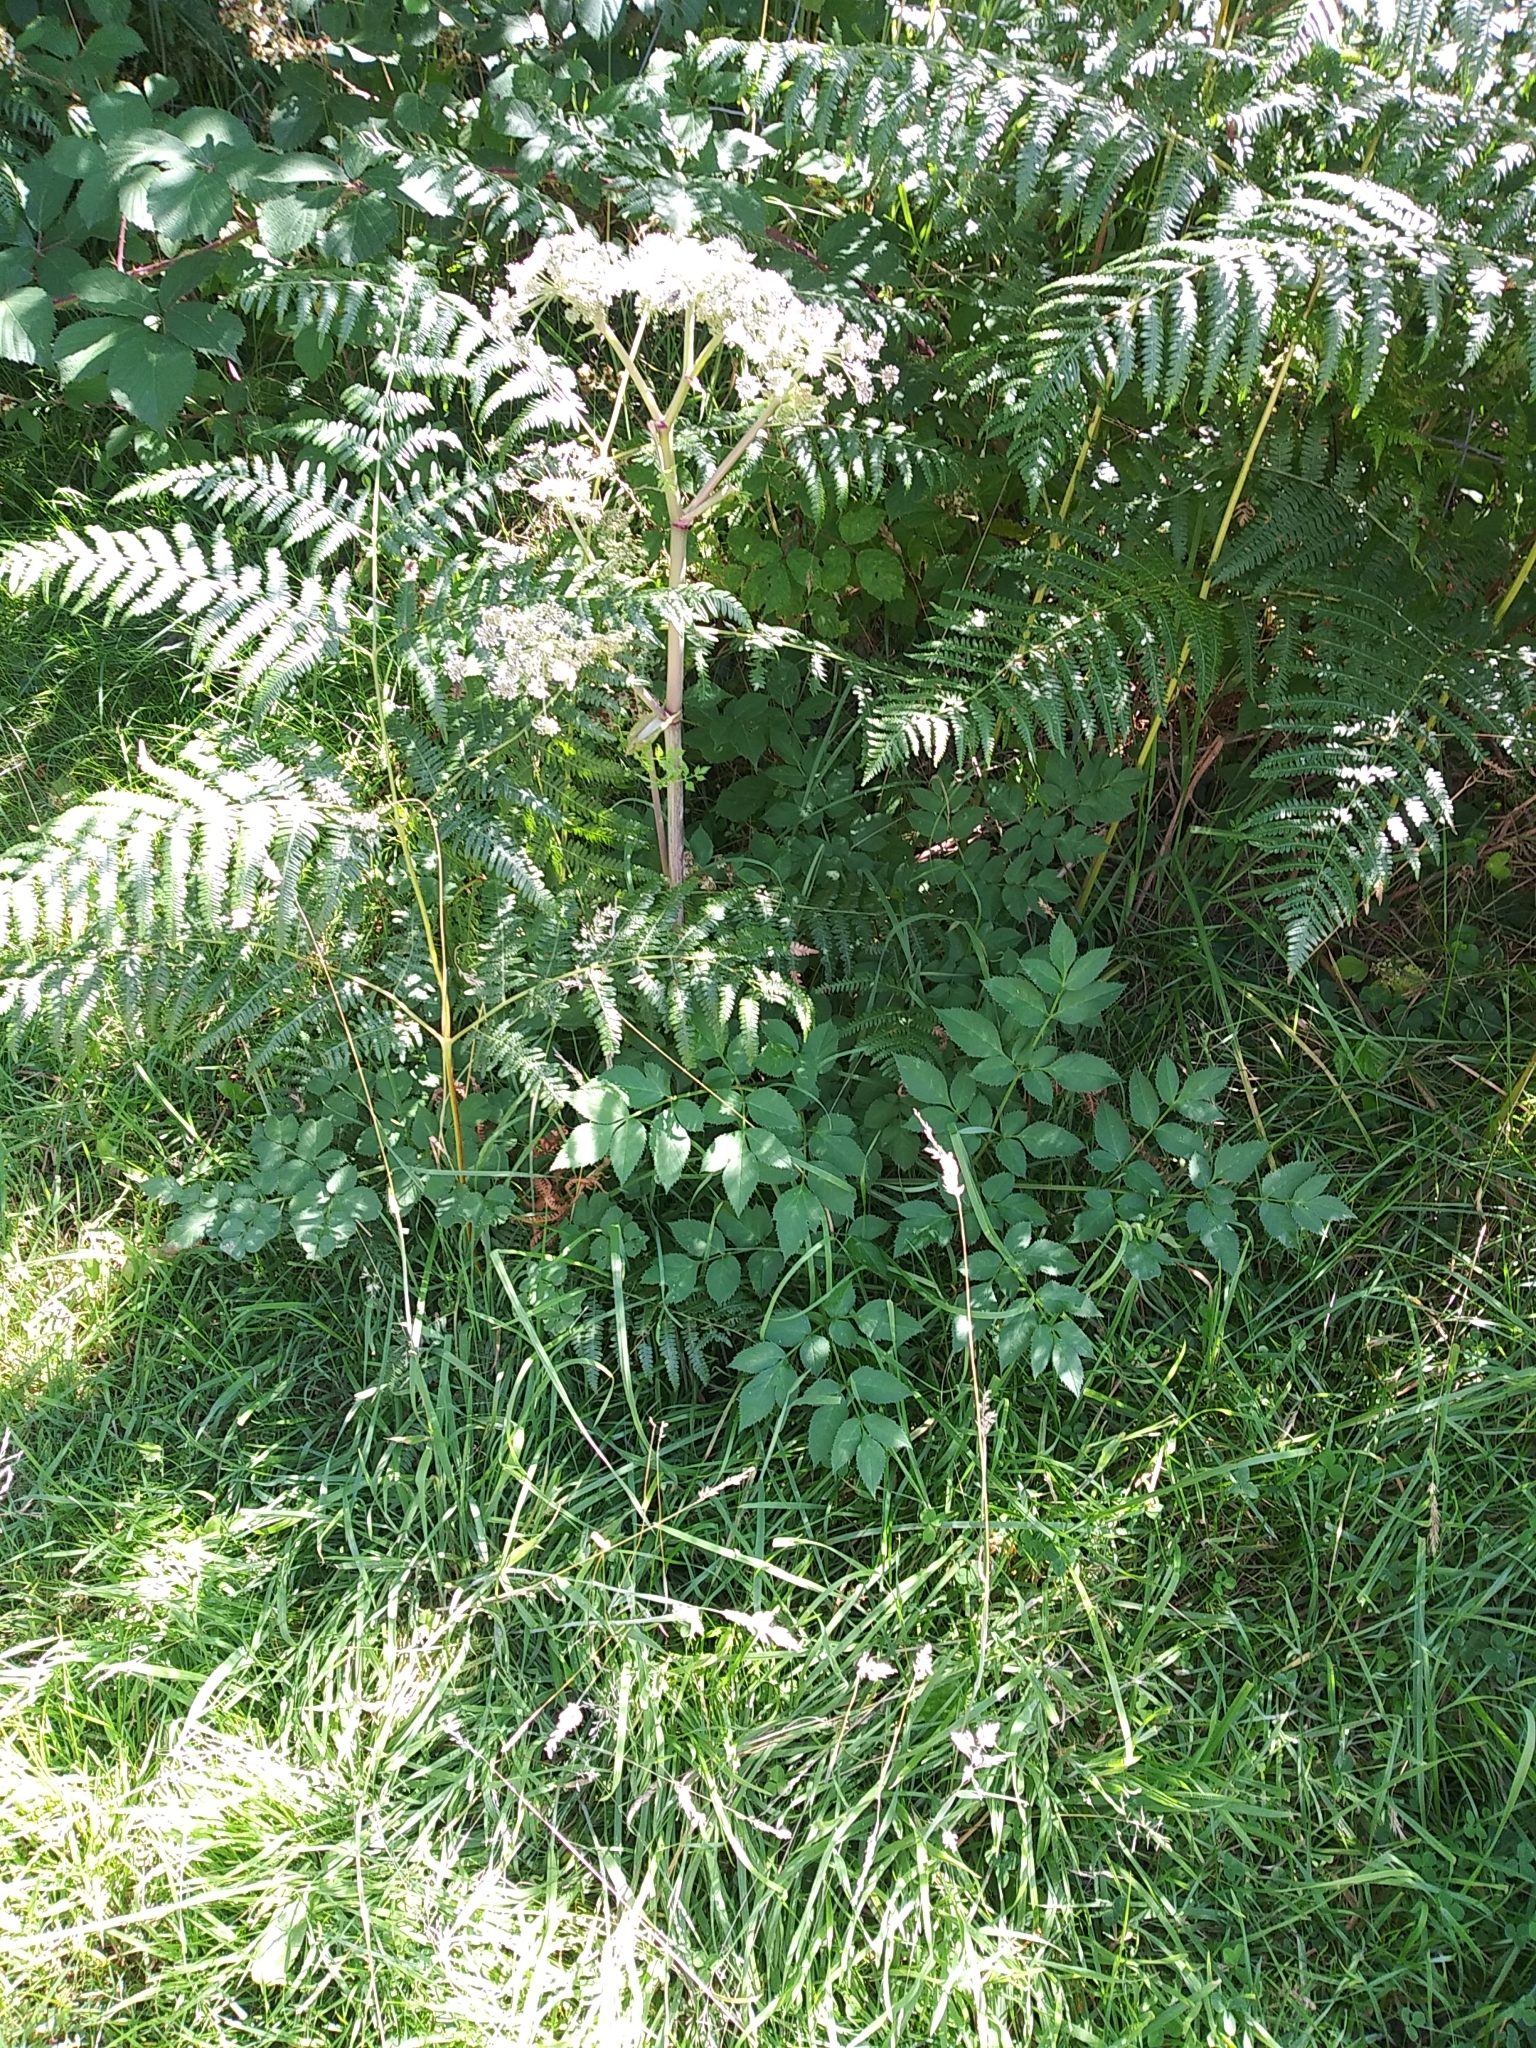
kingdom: Plantae
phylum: Tracheophyta
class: Magnoliopsida
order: Apiales
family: Apiaceae
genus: Angelica
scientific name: Angelica sylvestris
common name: Wild angelica
